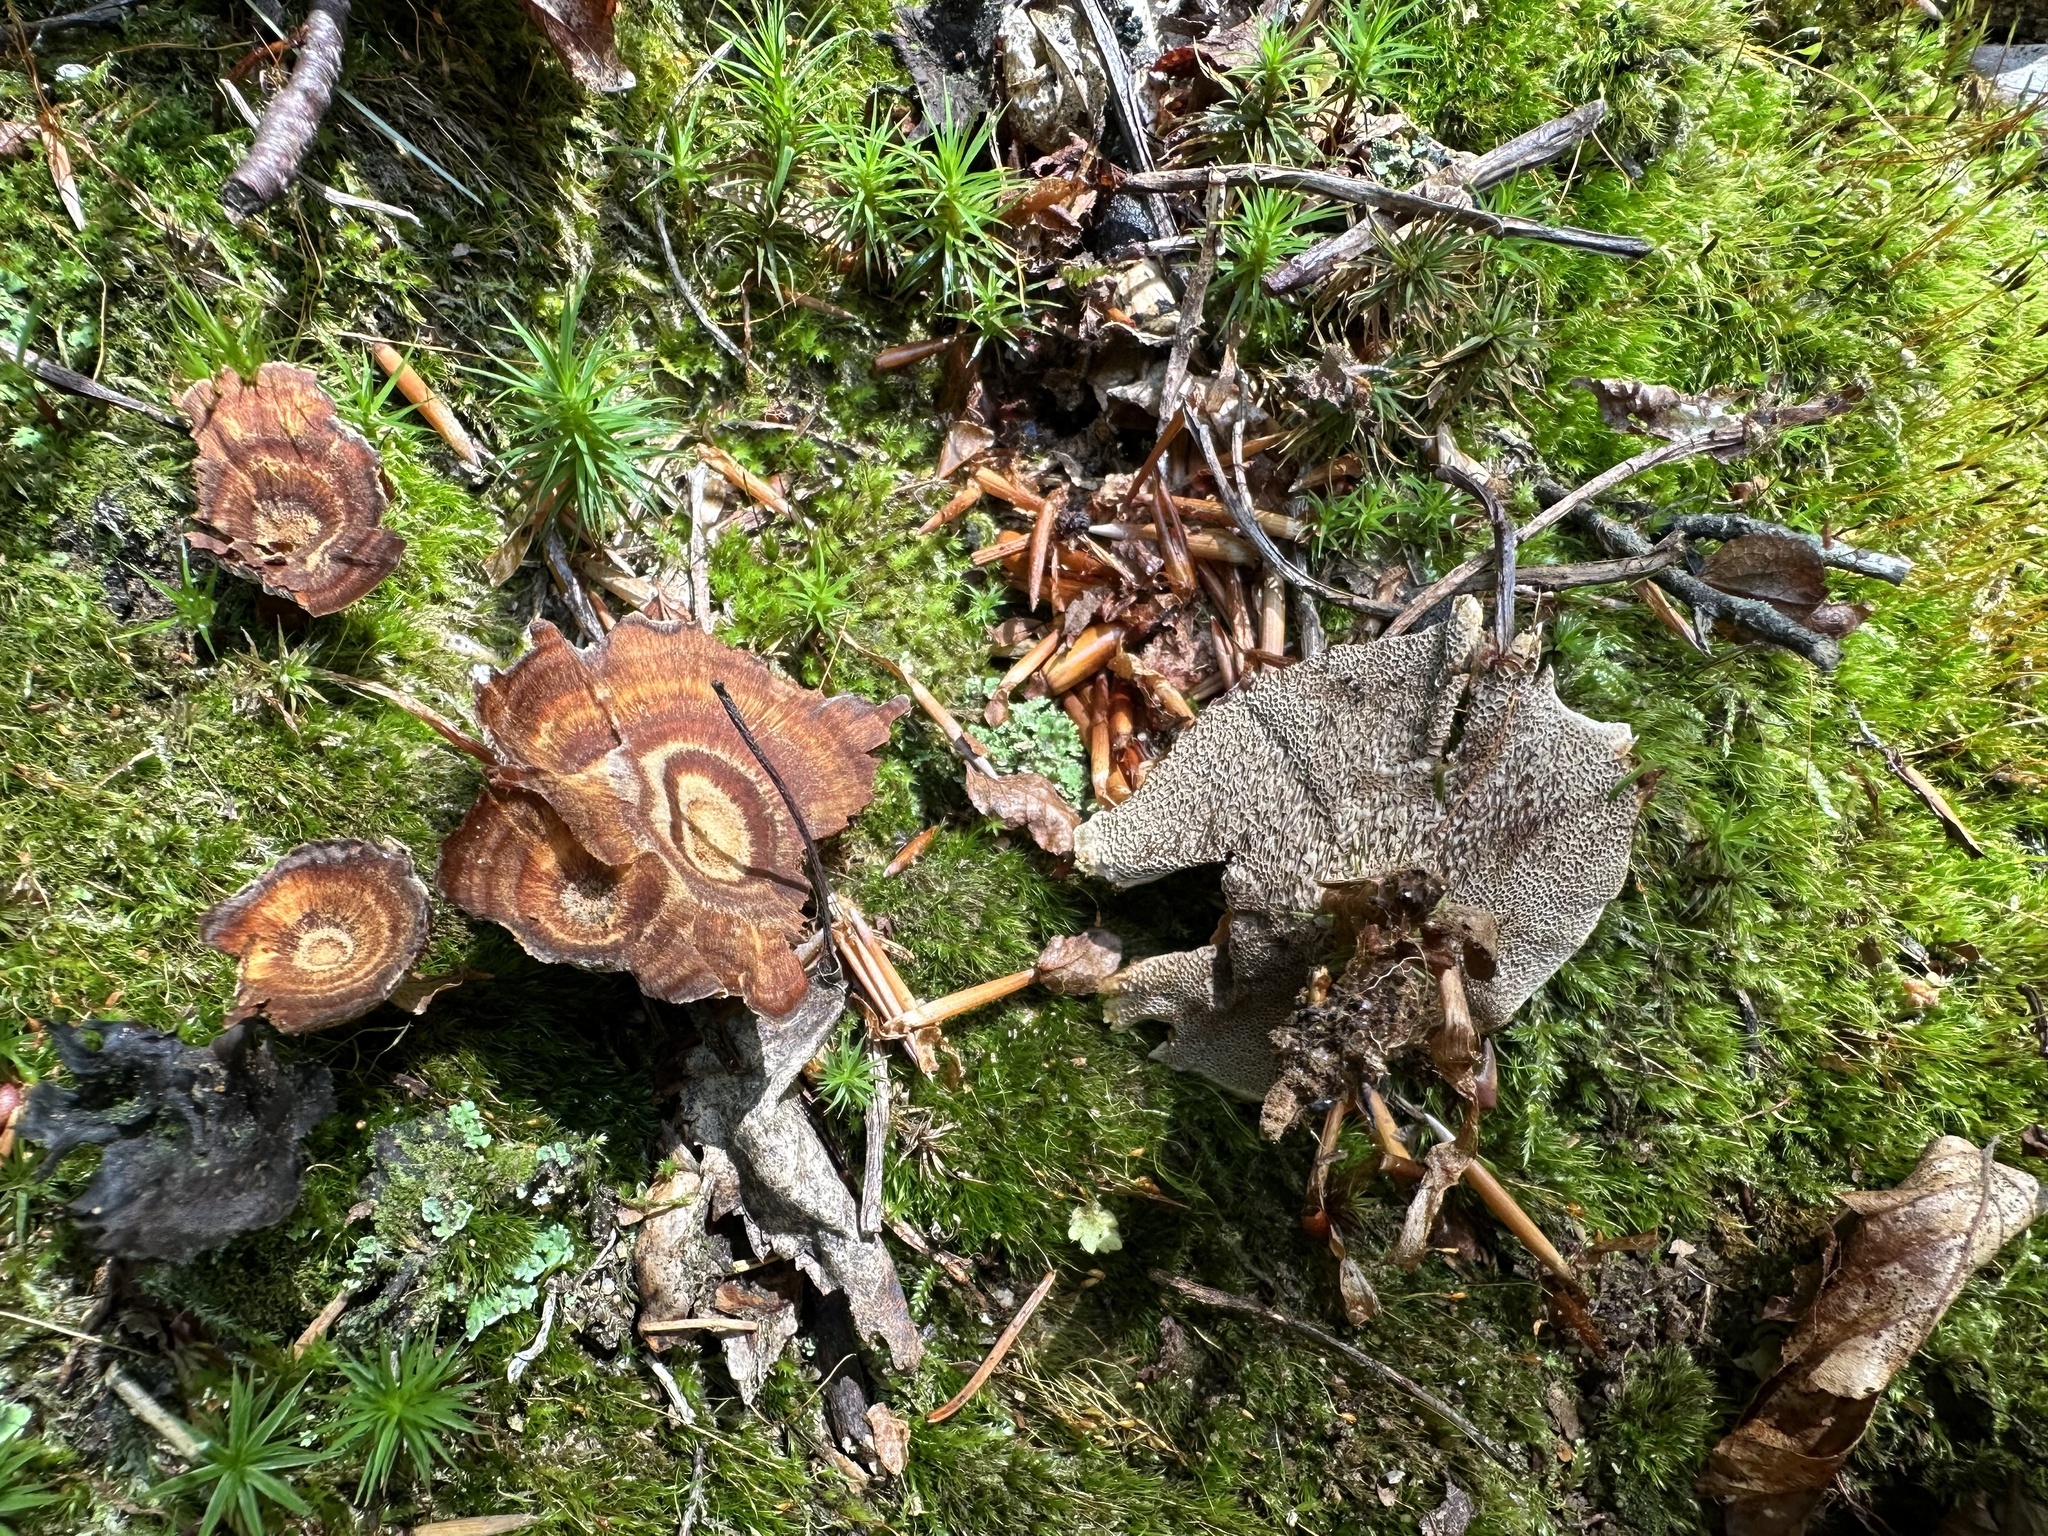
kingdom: Fungi
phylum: Basidiomycota
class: Agaricomycetes
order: Hymenochaetales
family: Hymenochaetaceae
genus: Coltricia
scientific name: Coltricia perennis
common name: Tiger's eye
